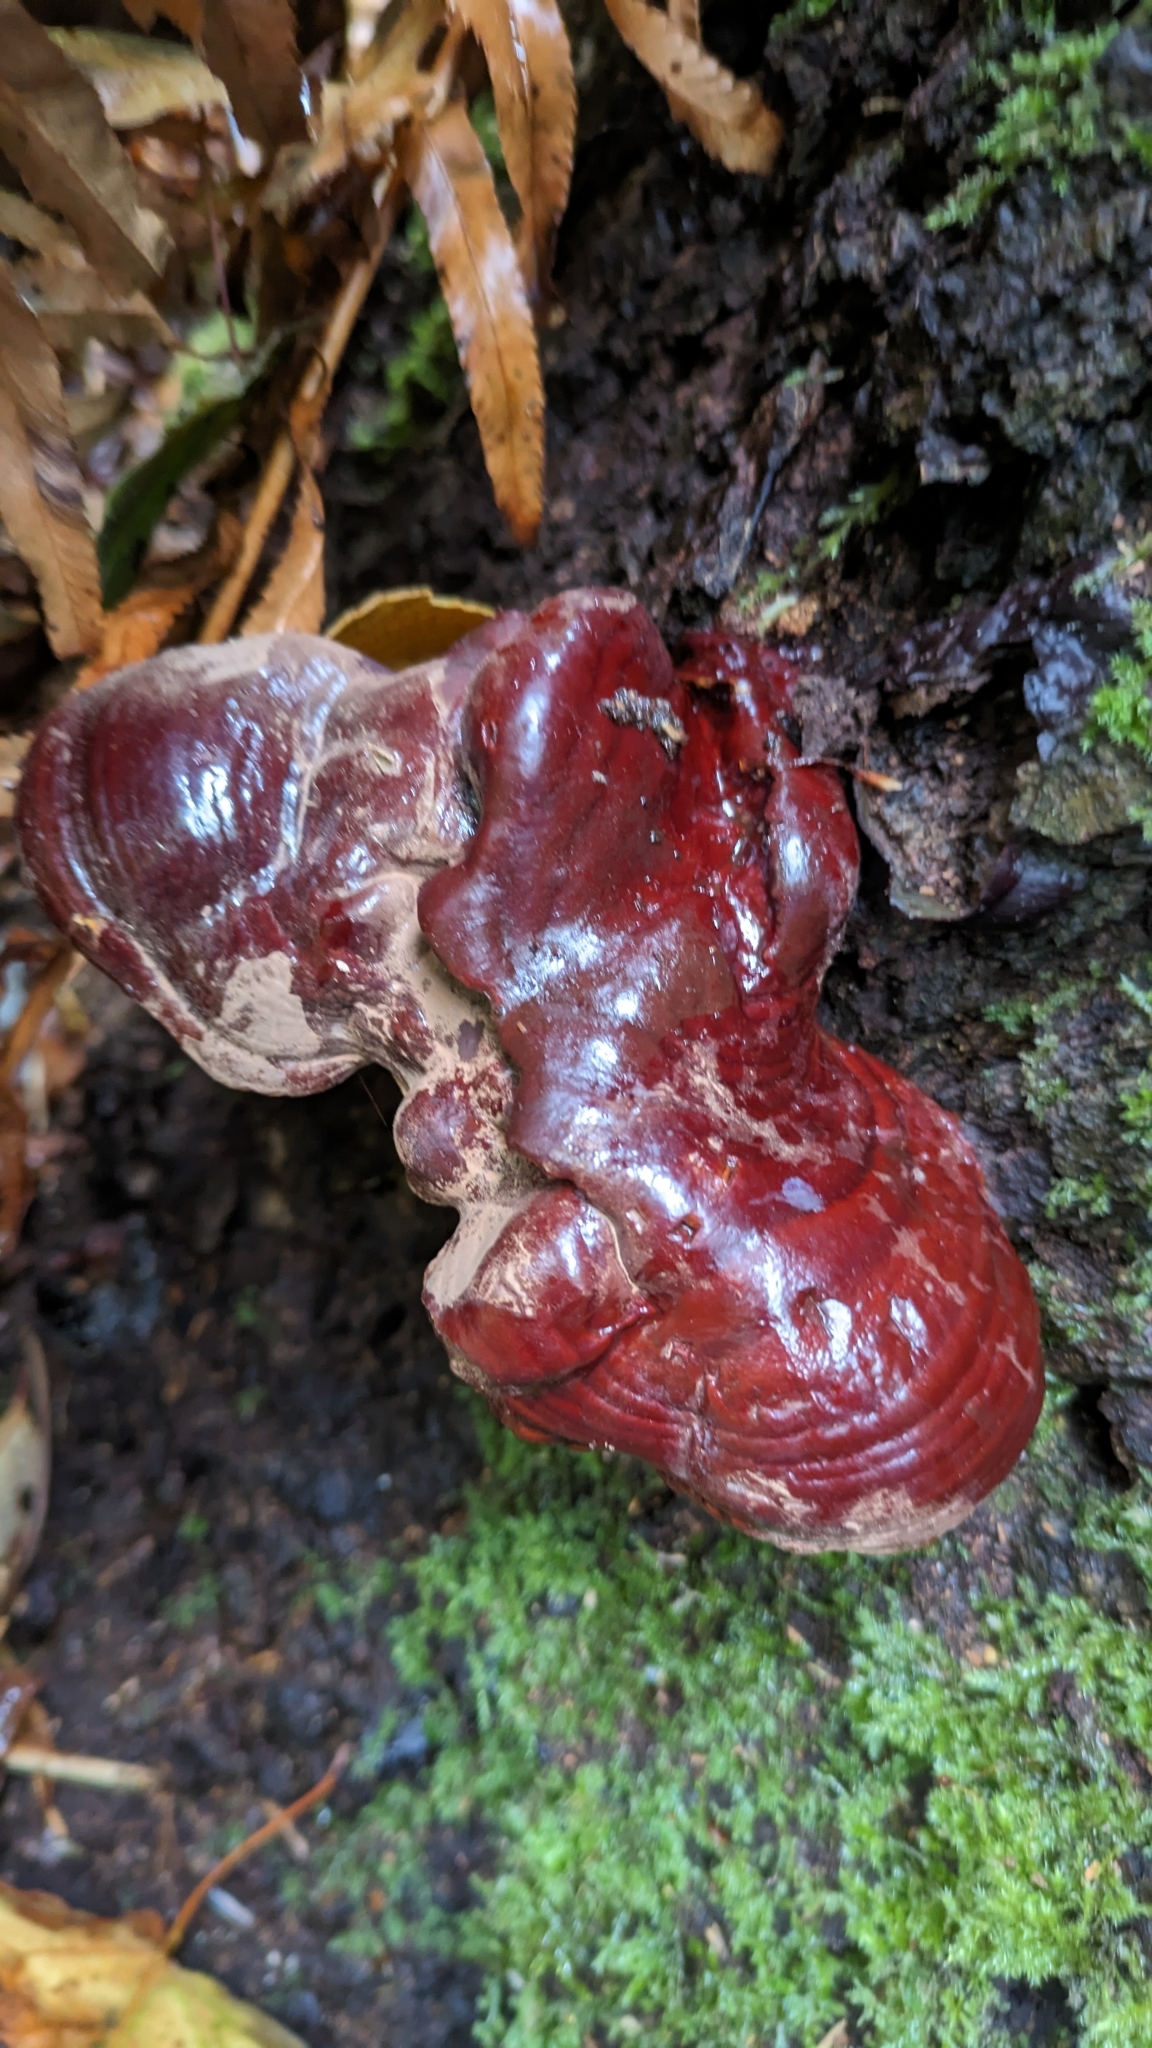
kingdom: Fungi
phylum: Basidiomycota
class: Agaricomycetes
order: Polyporales
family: Polyporaceae
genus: Ganoderma
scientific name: Ganoderma oregonense
